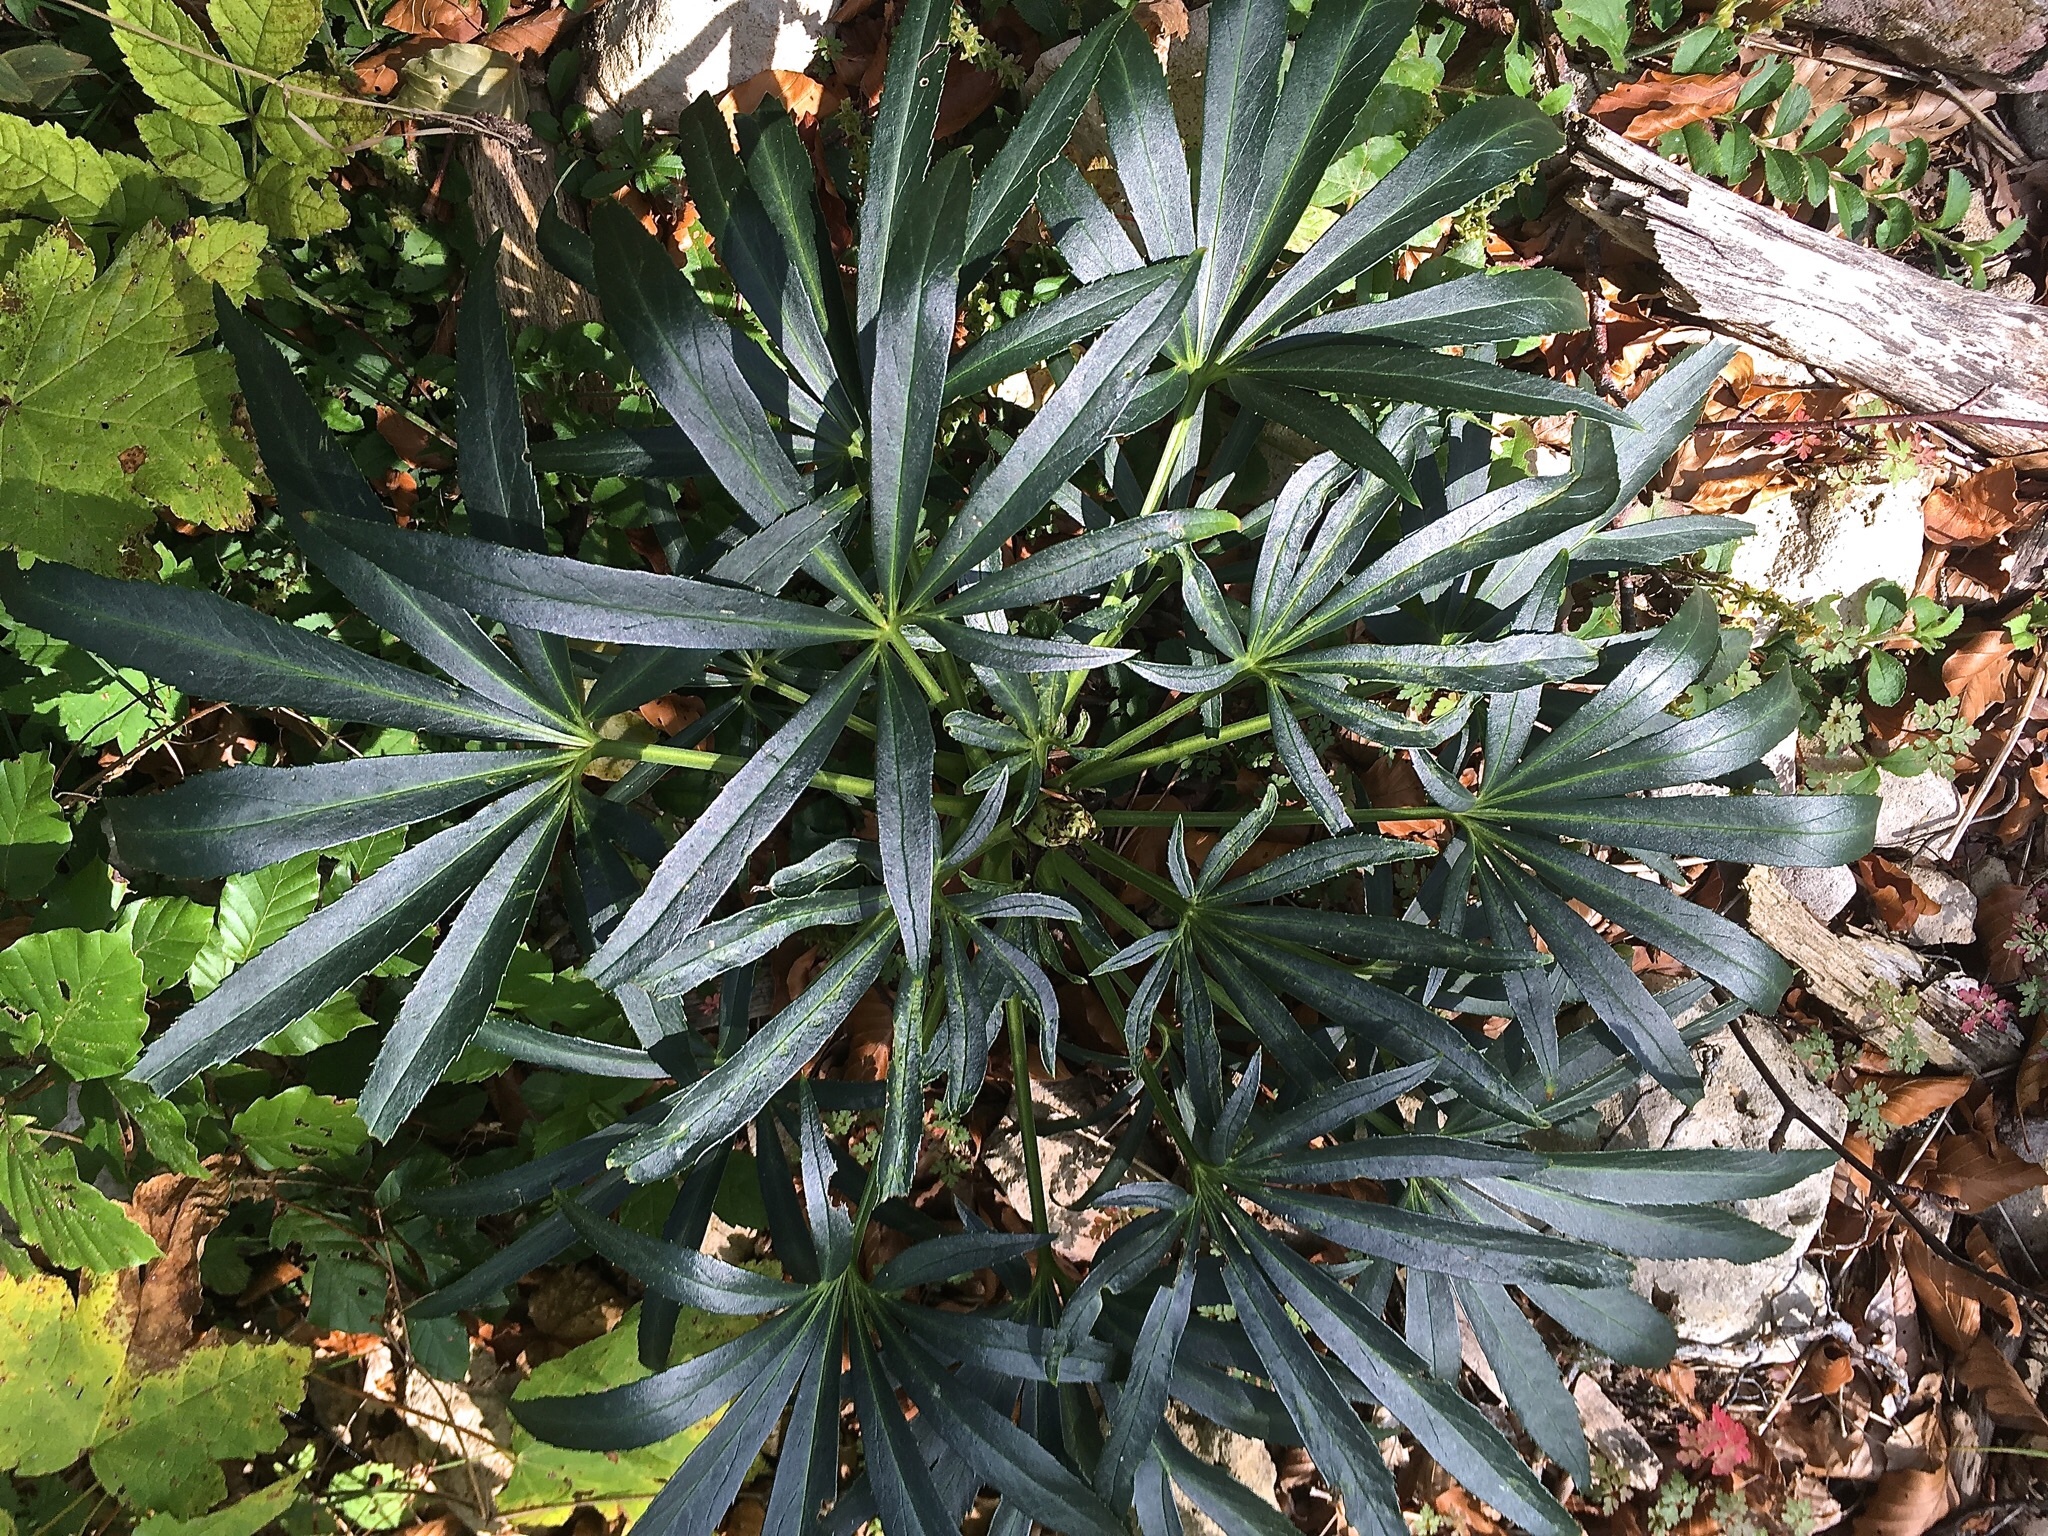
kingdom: Plantae
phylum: Tracheophyta
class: Magnoliopsida
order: Ranunculales
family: Ranunculaceae
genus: Helleborus
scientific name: Helleborus foetidus
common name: Stinking hellebore
